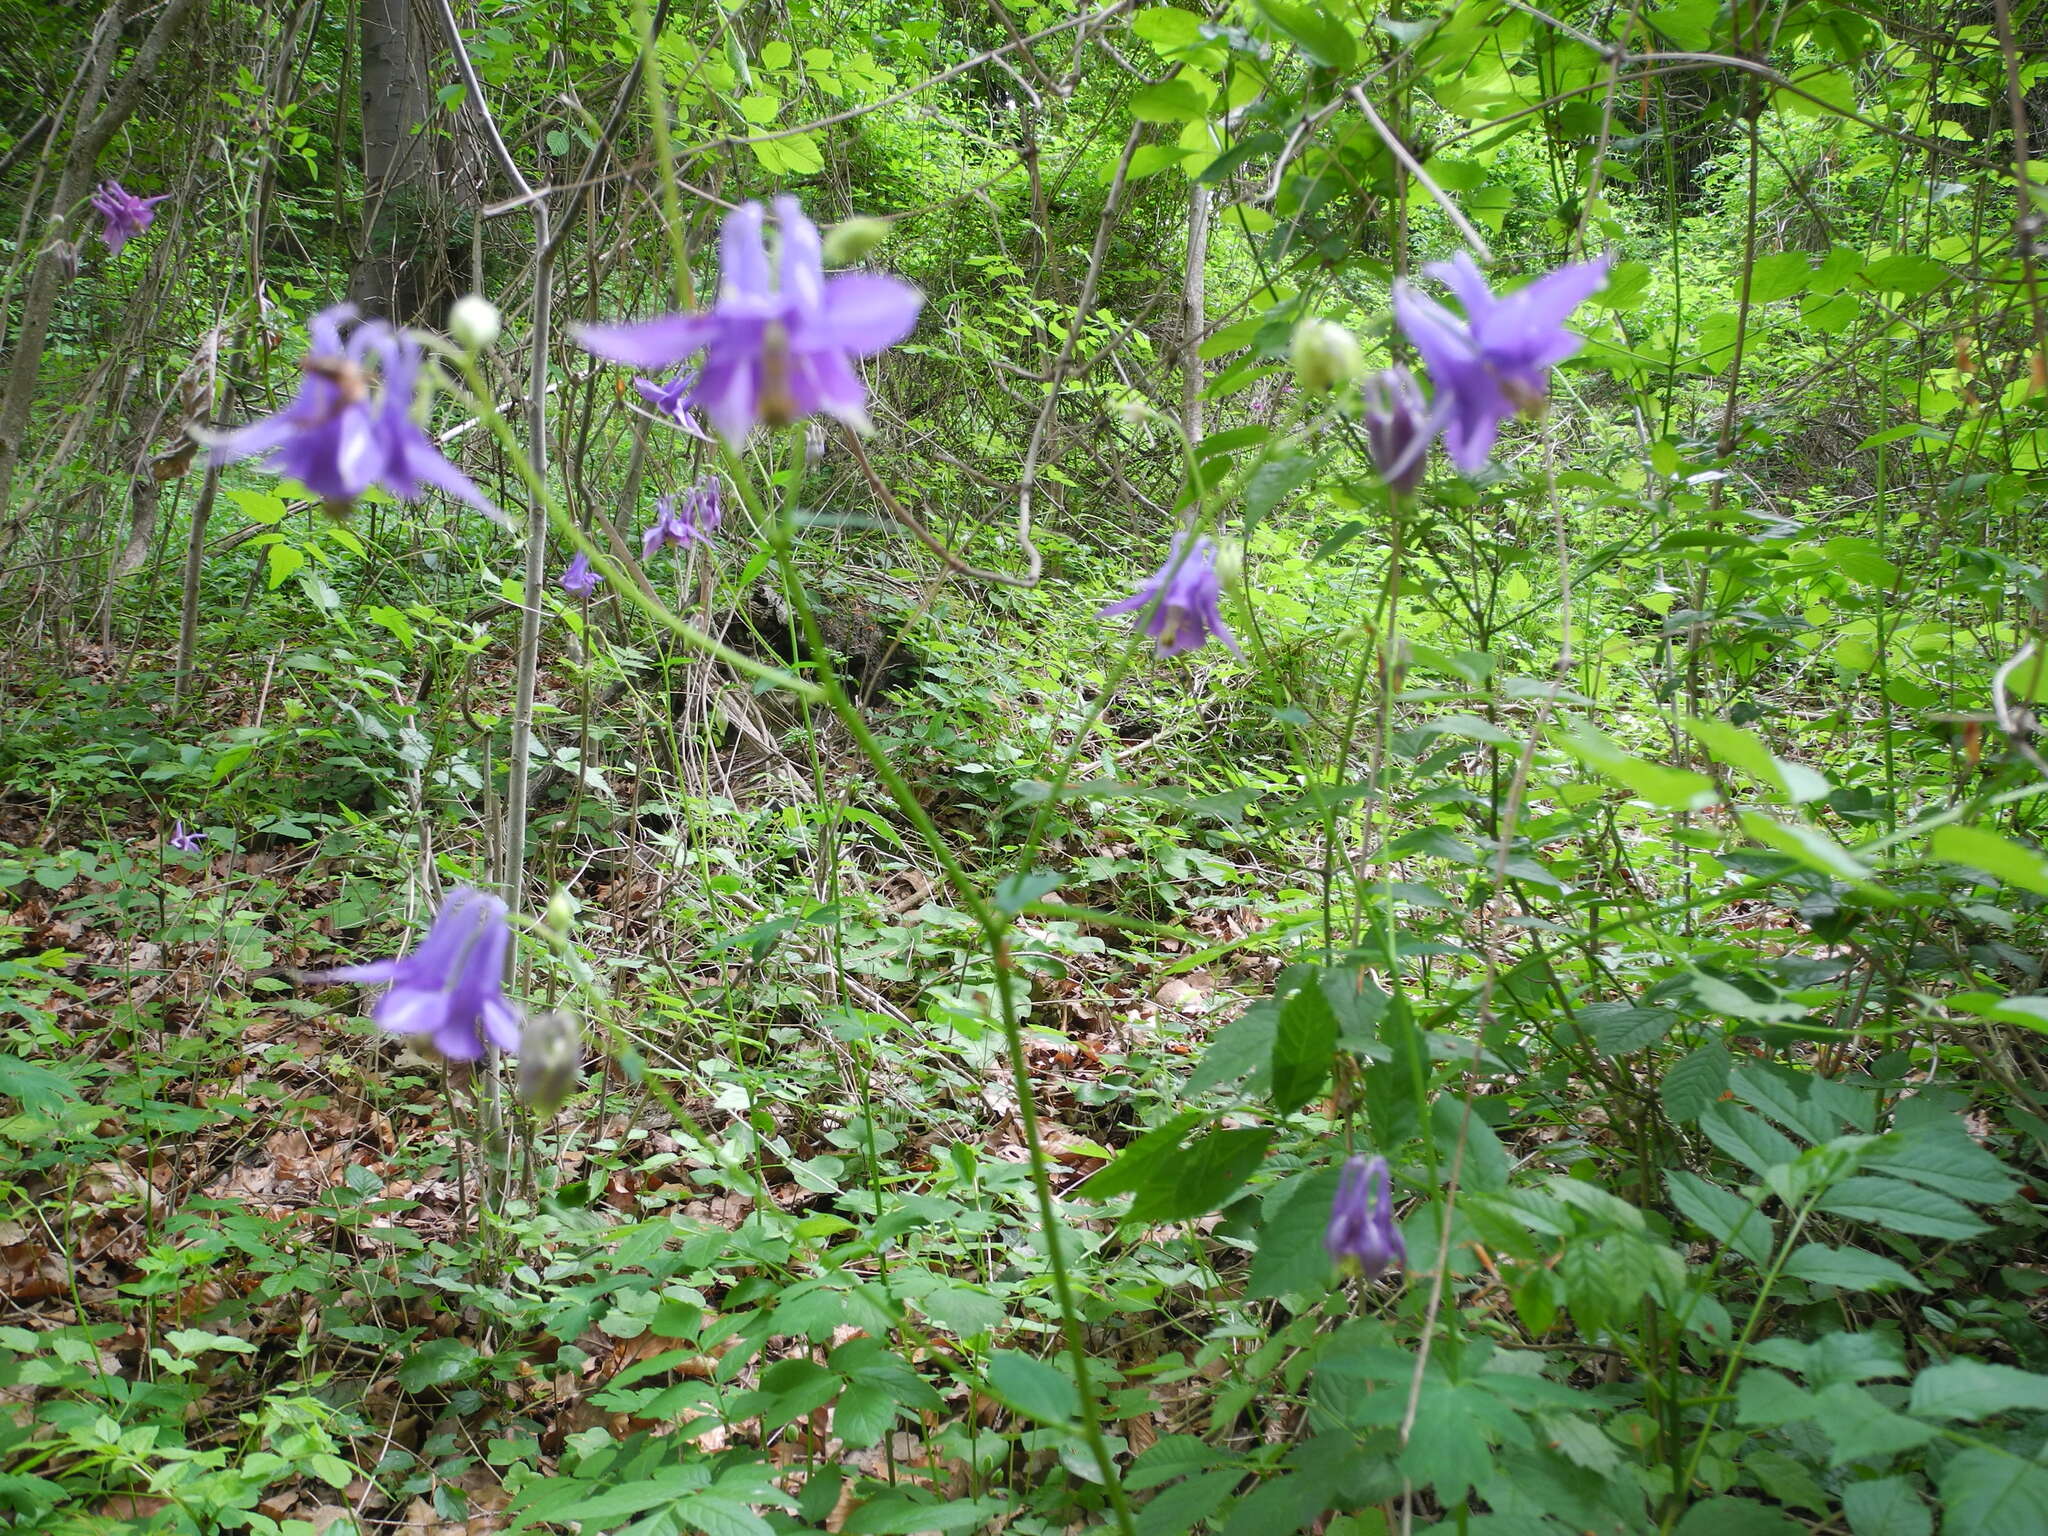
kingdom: Plantae
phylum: Tracheophyta
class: Magnoliopsida
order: Ranunculales
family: Ranunculaceae
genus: Aquilegia
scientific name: Aquilegia vulgaris
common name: Columbine
